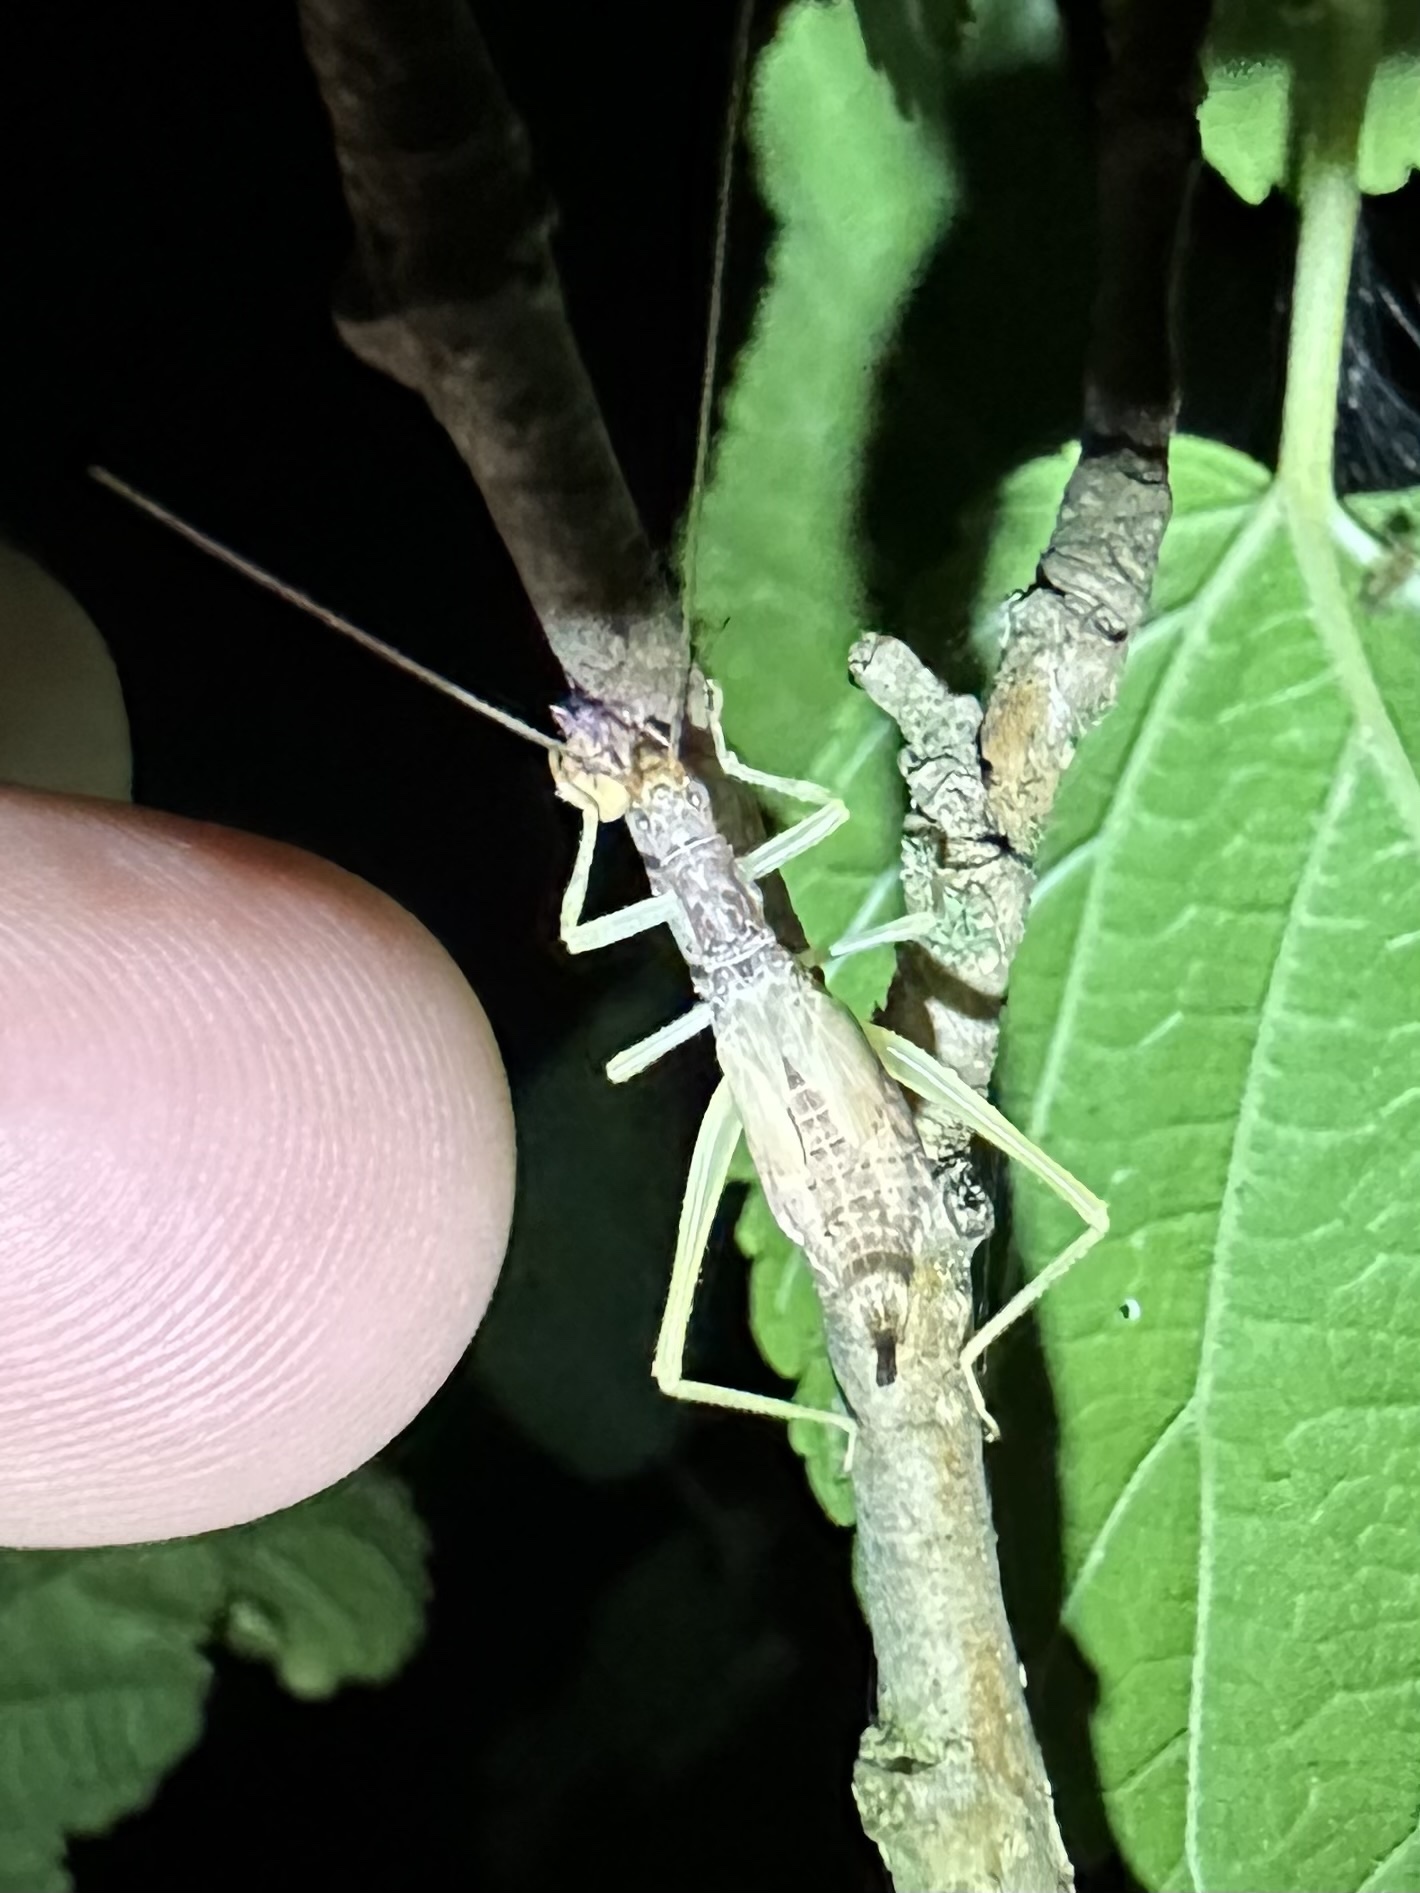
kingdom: Animalia
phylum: Arthropoda
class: Insecta
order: Orthoptera
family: Gryllidae
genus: Neoxabea
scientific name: Neoxabea bipunctata
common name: Two-spotted tree cricket
